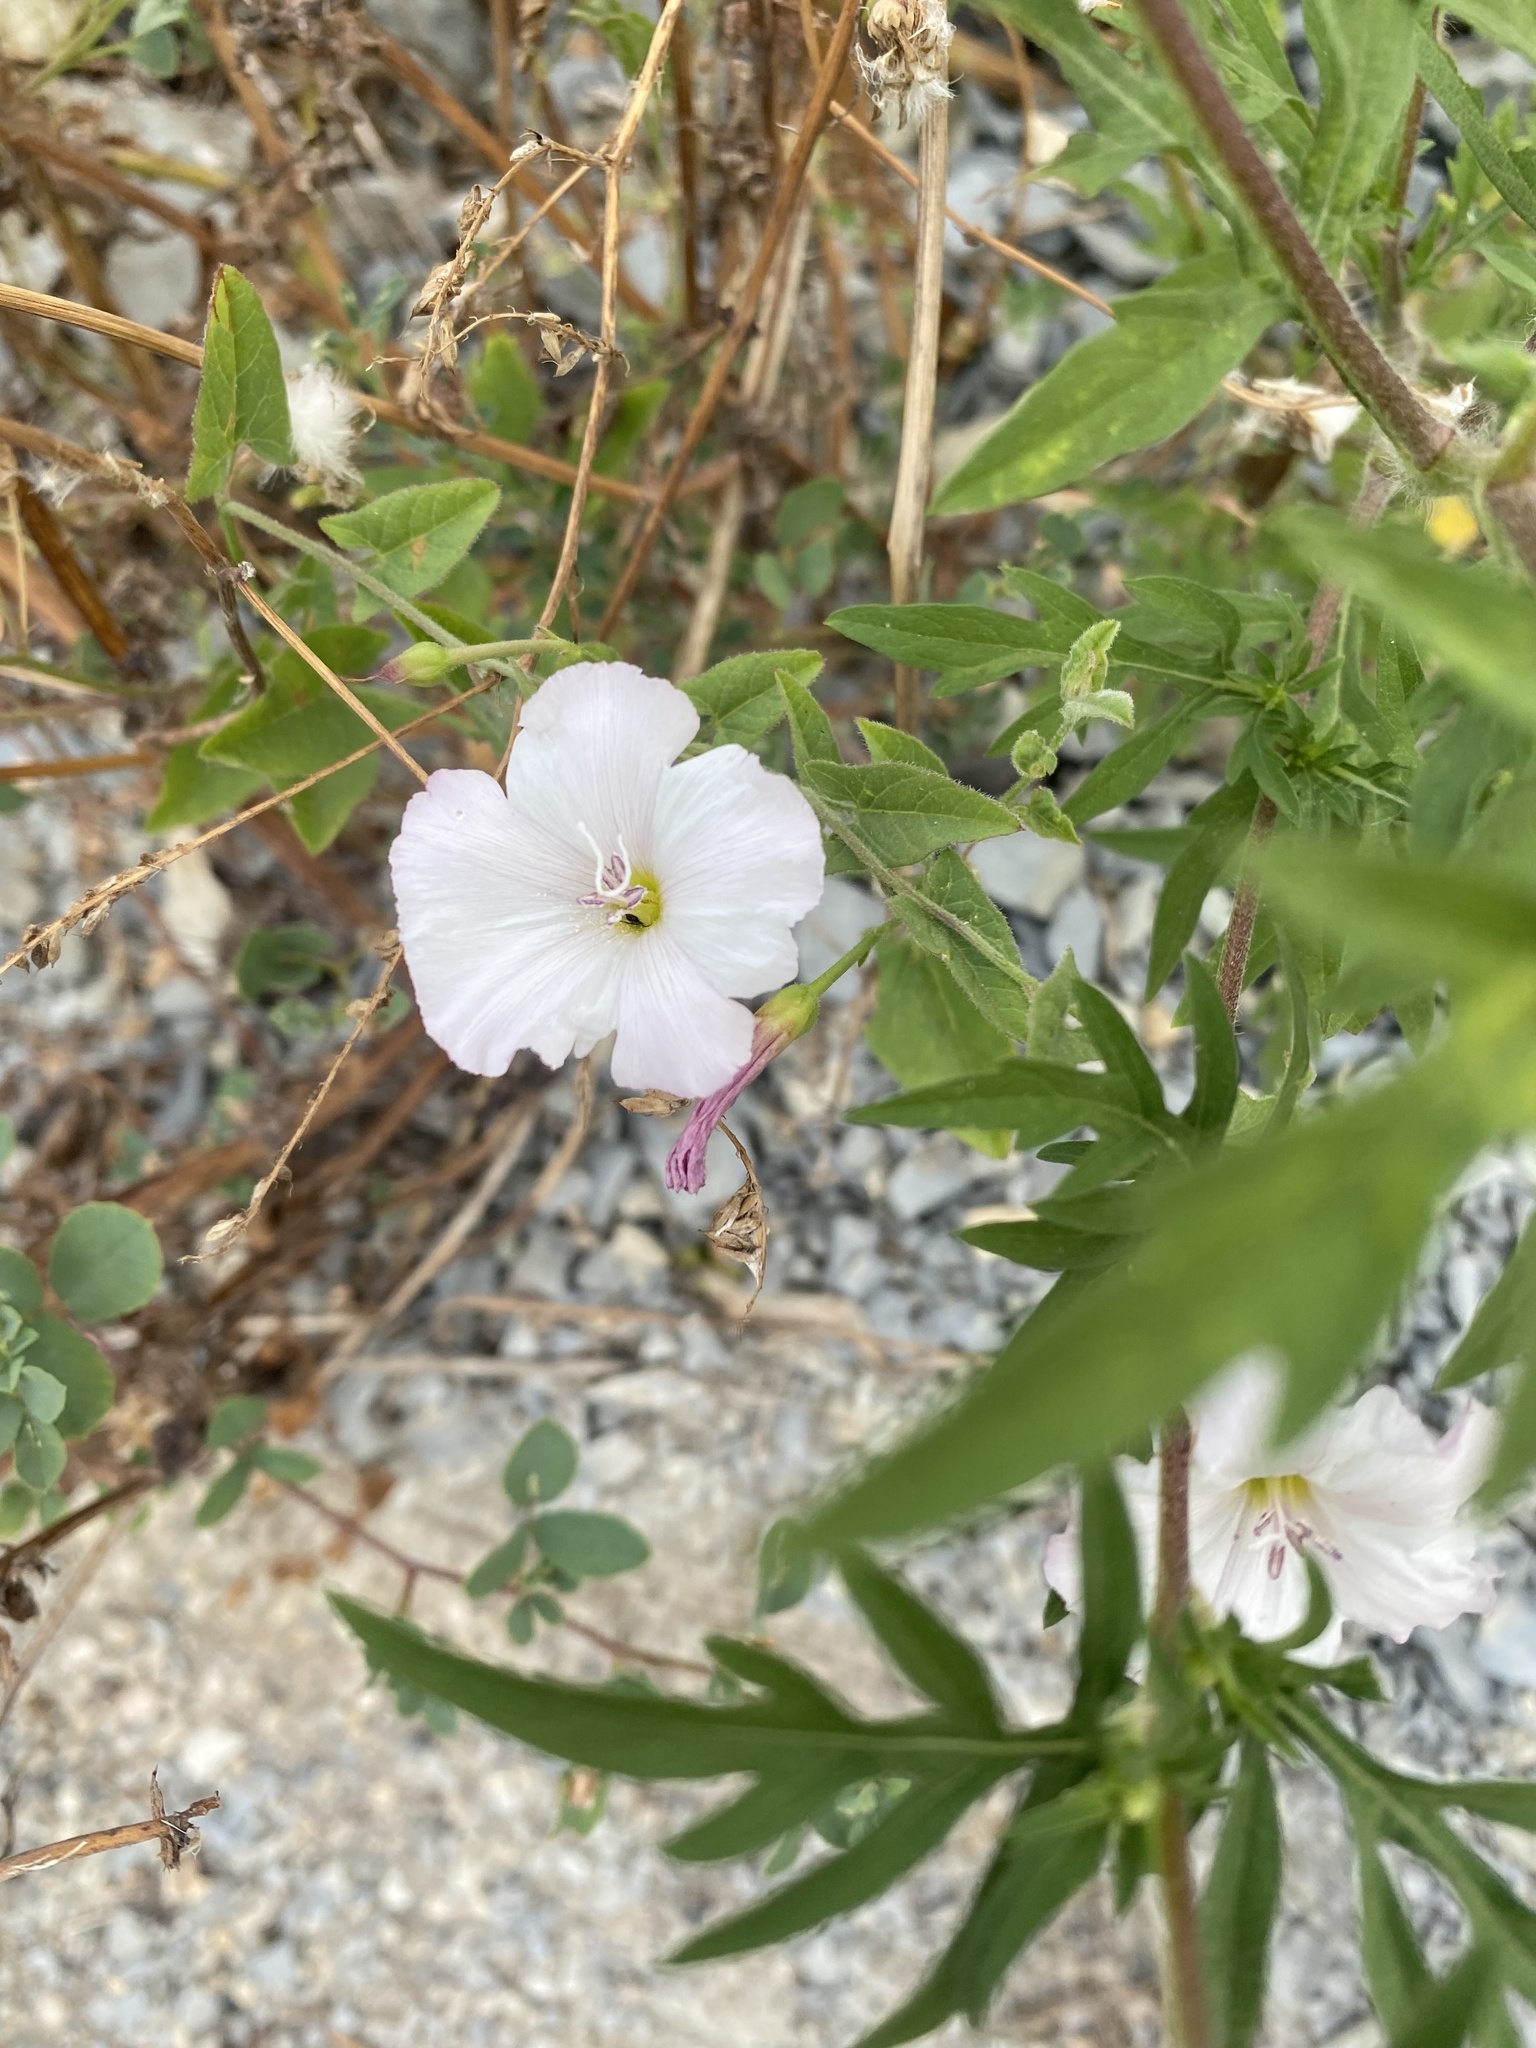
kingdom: Plantae
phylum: Tracheophyta
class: Magnoliopsida
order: Solanales
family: Convolvulaceae
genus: Convolvulus
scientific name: Convolvulus arvensis
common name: Field bindweed
